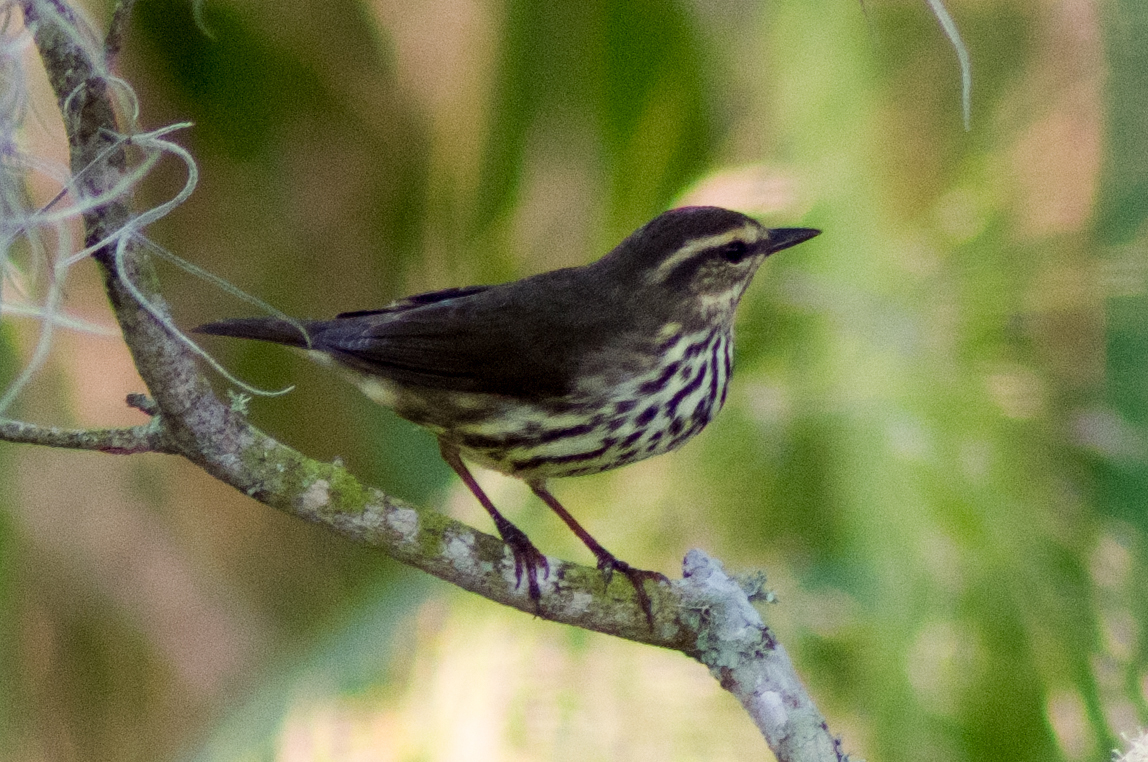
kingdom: Animalia
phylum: Chordata
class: Aves
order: Passeriformes
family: Parulidae
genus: Parkesia
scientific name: Parkesia noveboracensis
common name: Northern waterthrush
